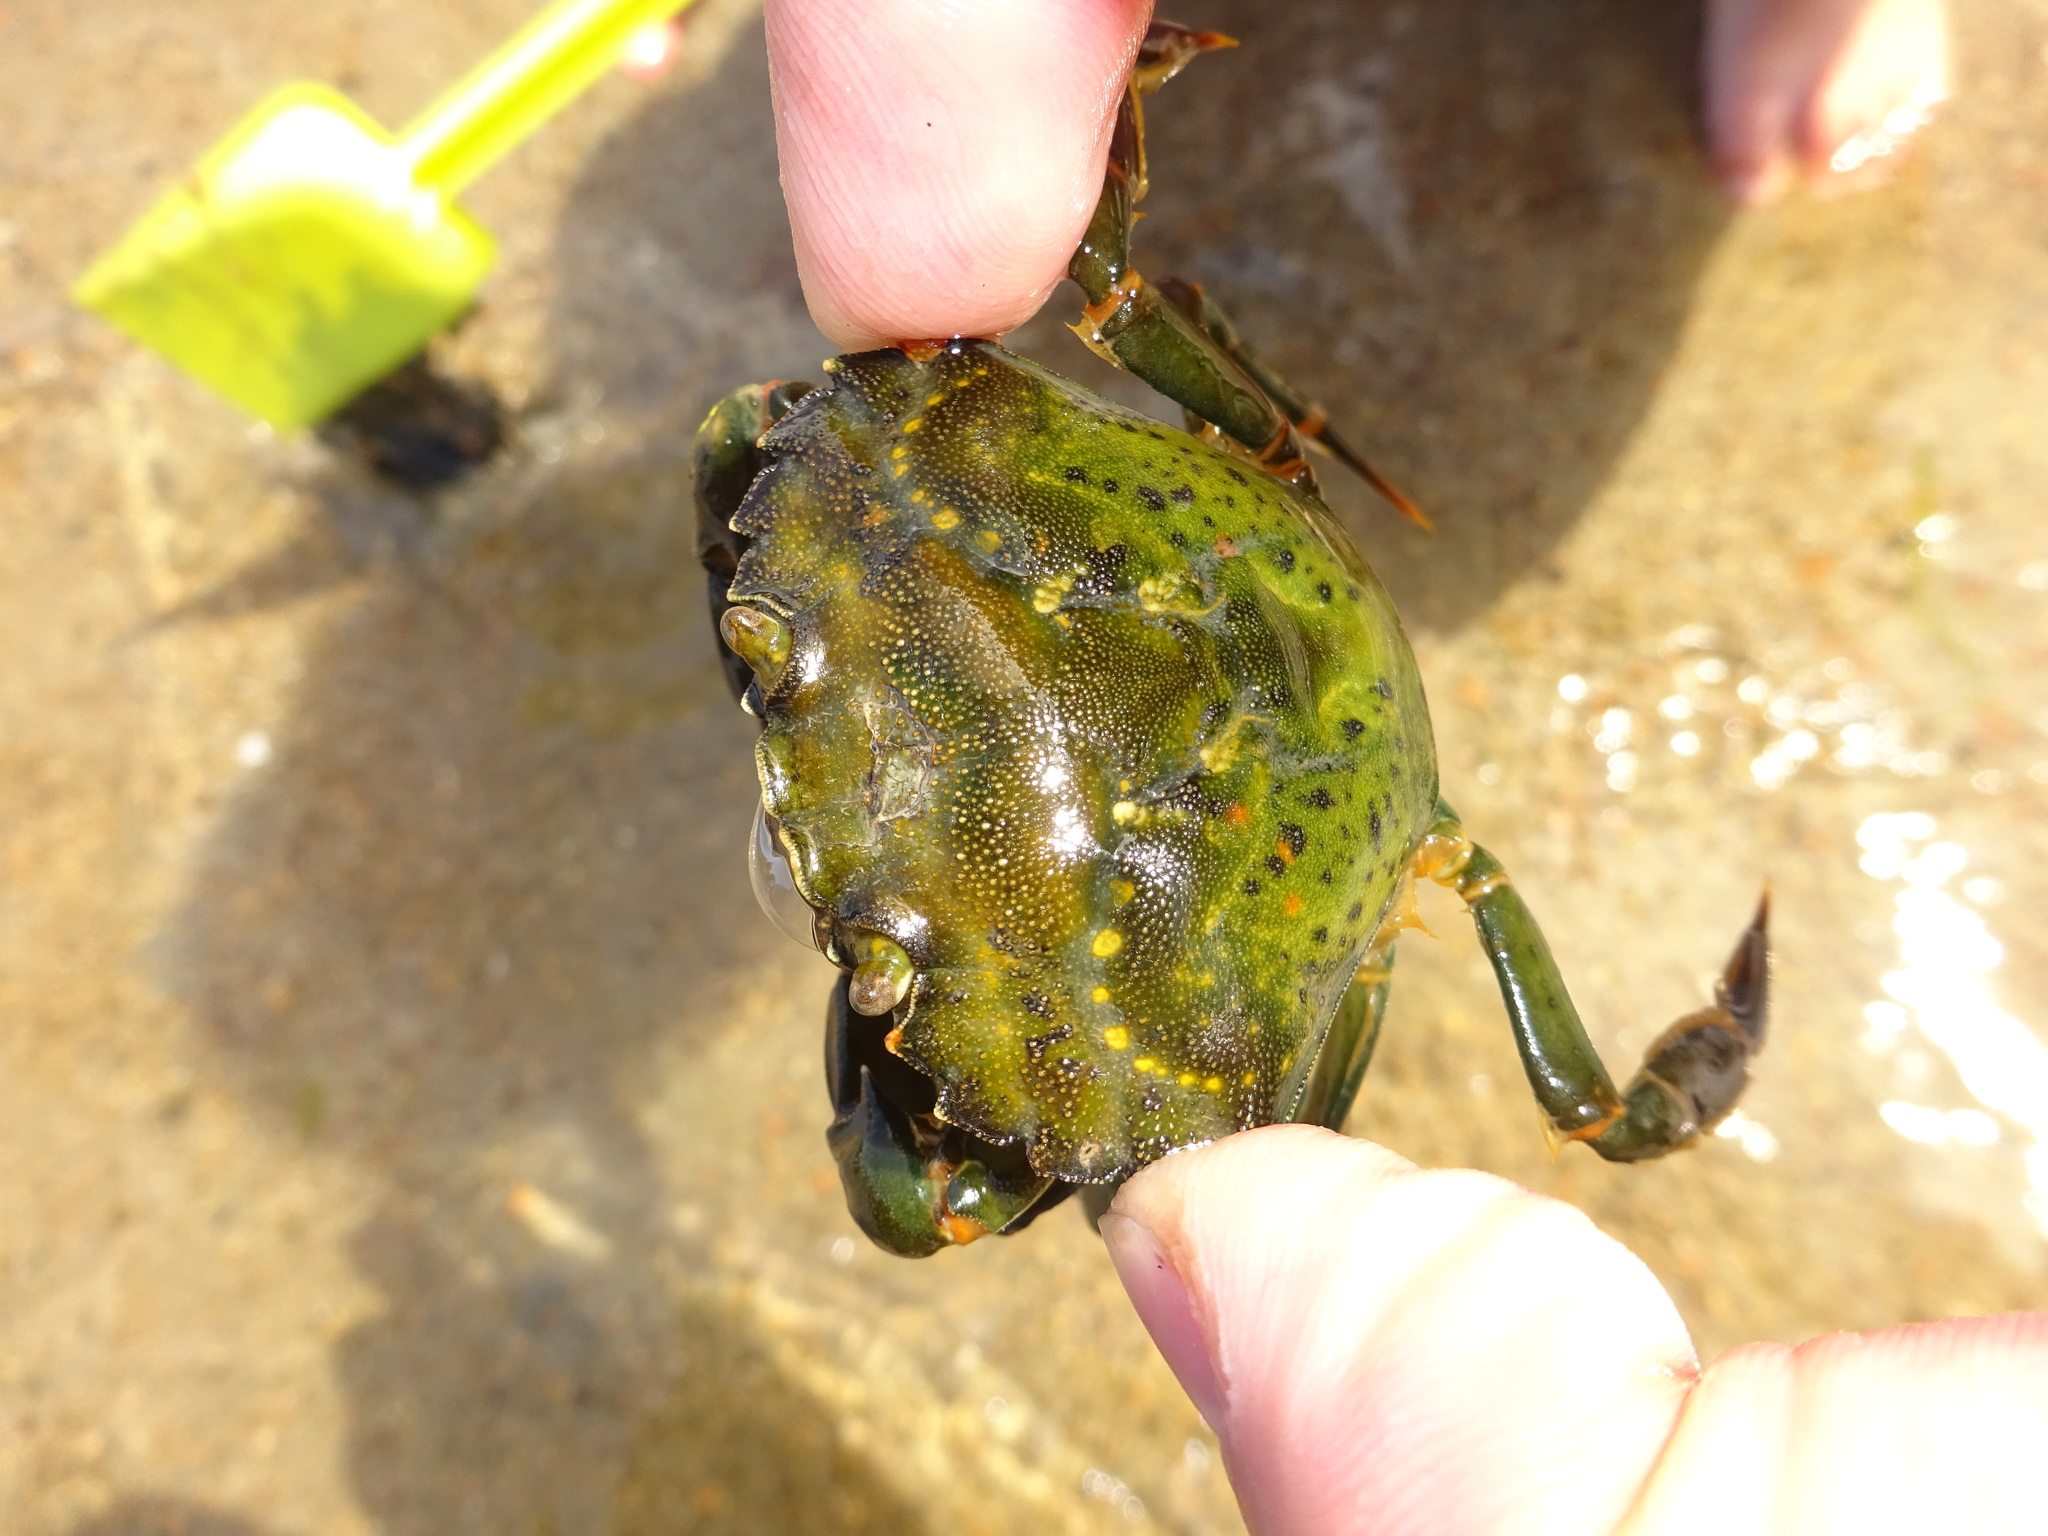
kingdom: Animalia
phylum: Arthropoda
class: Malacostraca
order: Decapoda
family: Carcinidae
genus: Carcinus
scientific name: Carcinus maenas
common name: European green crab
